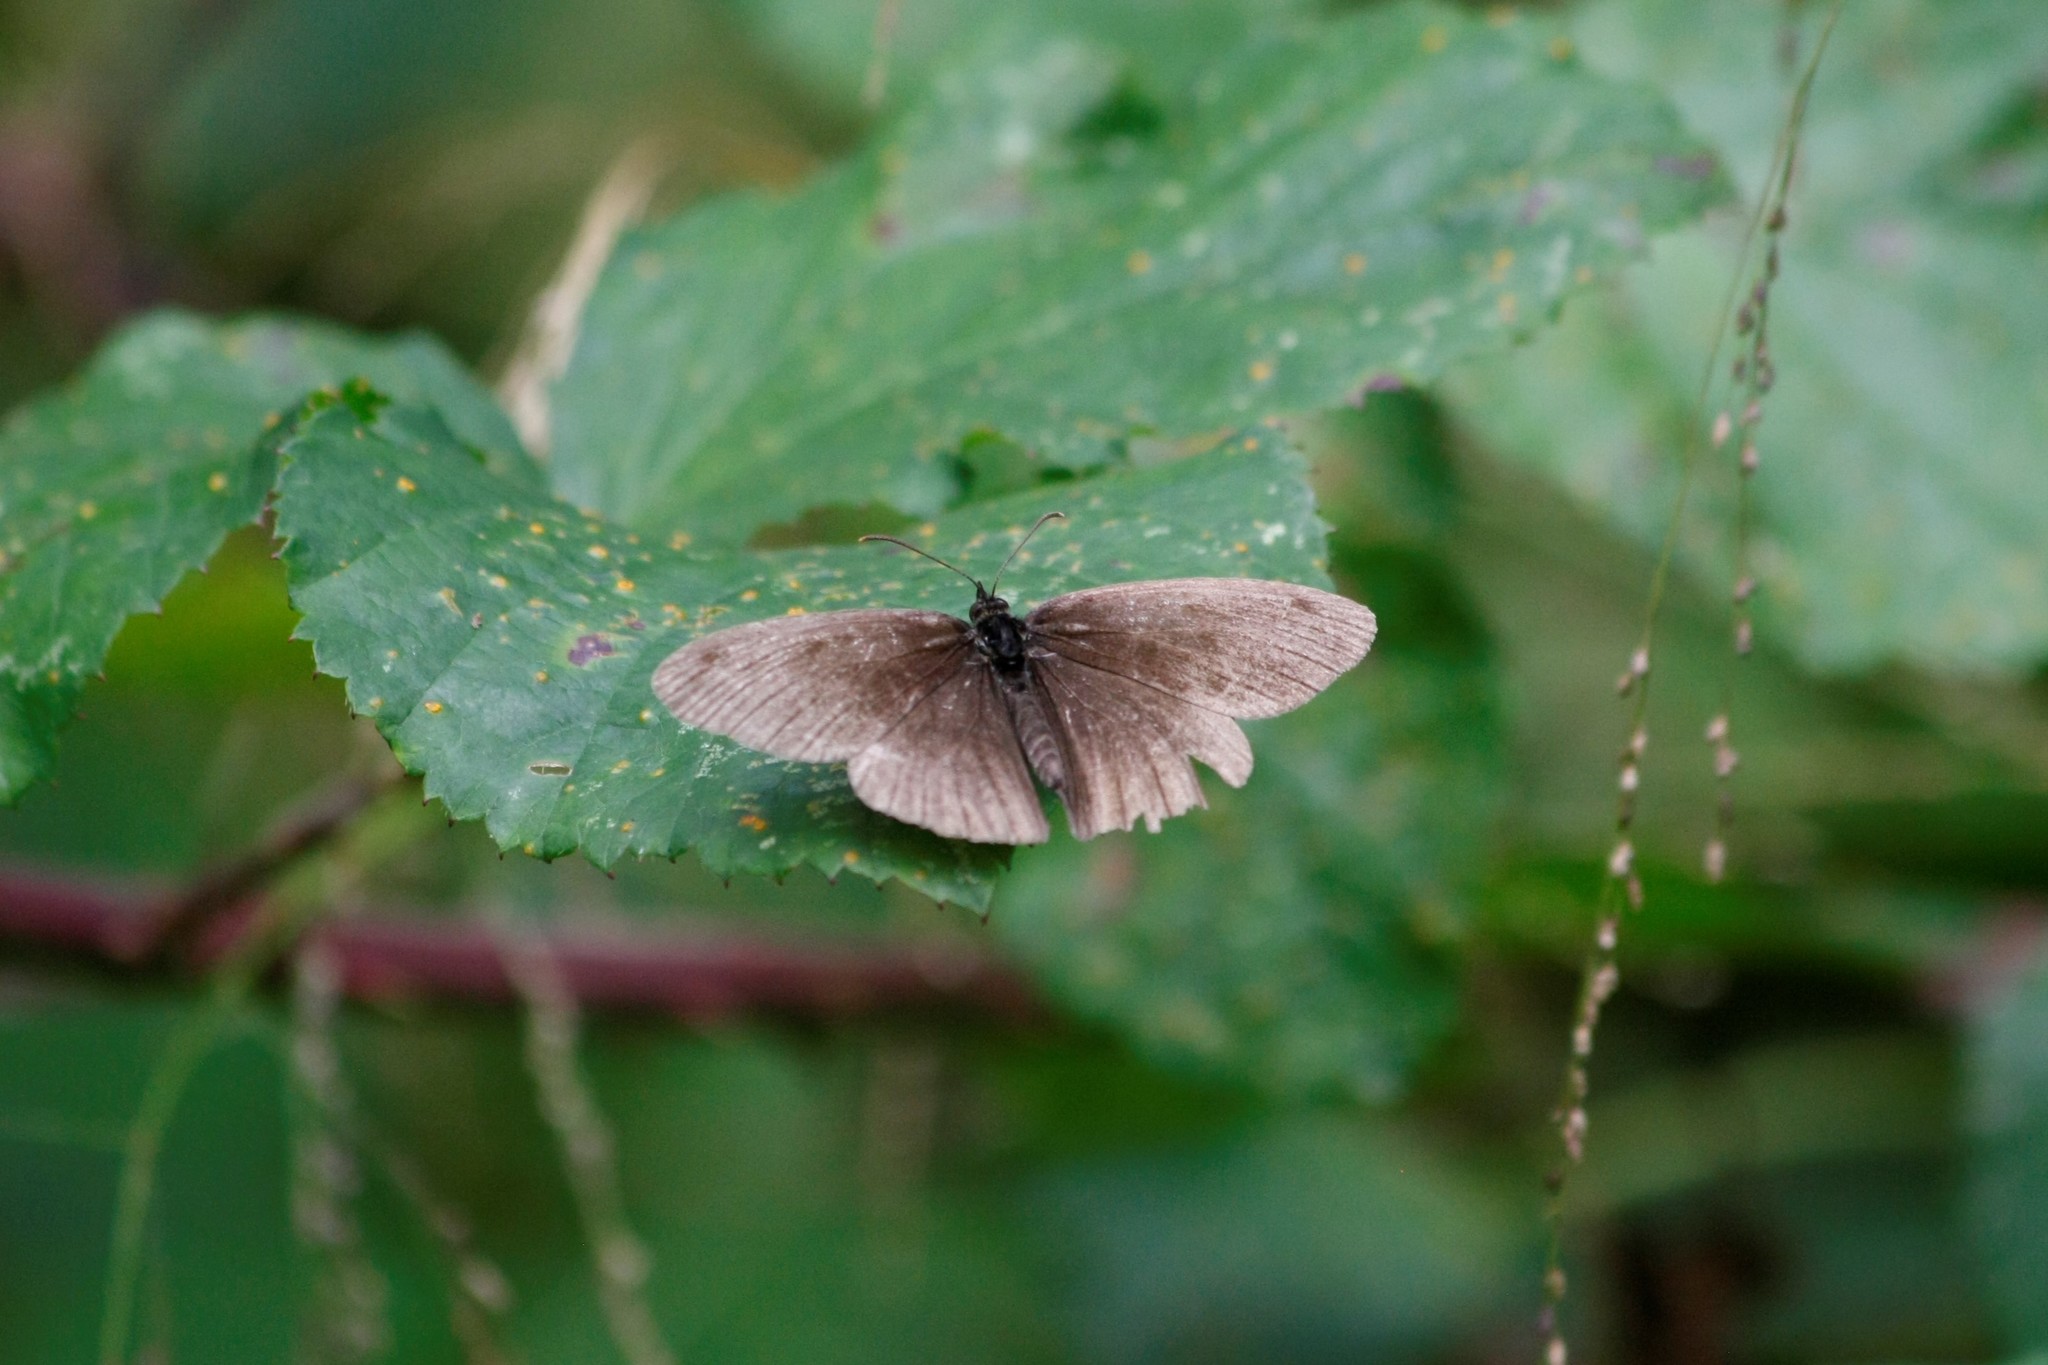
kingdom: Animalia
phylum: Arthropoda
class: Insecta
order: Lepidoptera
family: Nymphalidae
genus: Aphantopus
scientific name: Aphantopus hyperantus
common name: Ringlet
